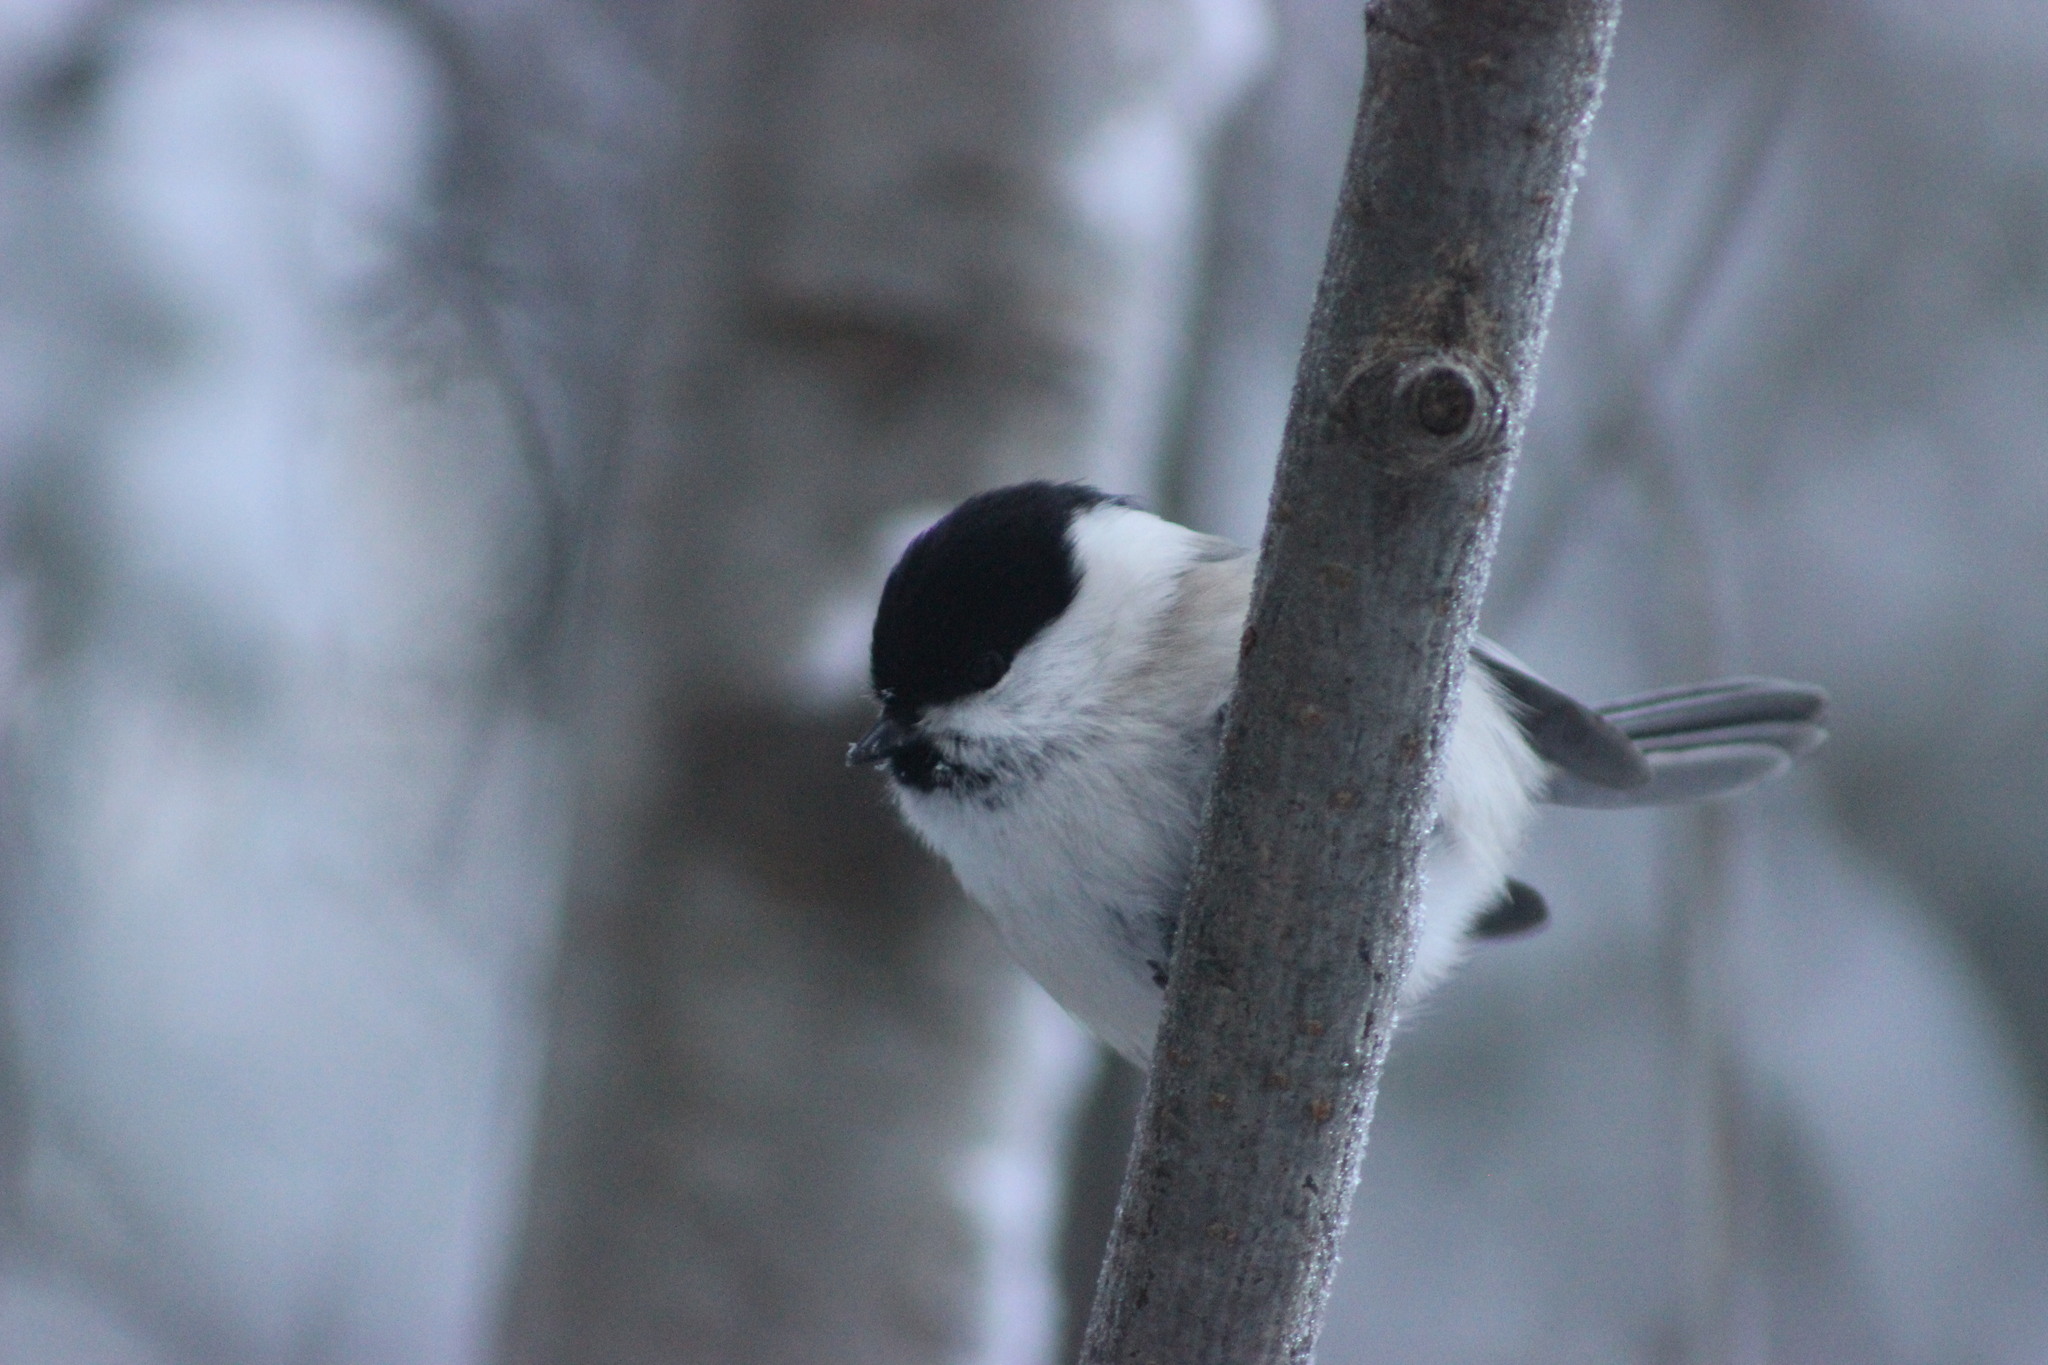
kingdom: Animalia
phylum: Chordata
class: Aves
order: Passeriformes
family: Paridae
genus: Poecile
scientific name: Poecile montanus
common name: Willow tit
